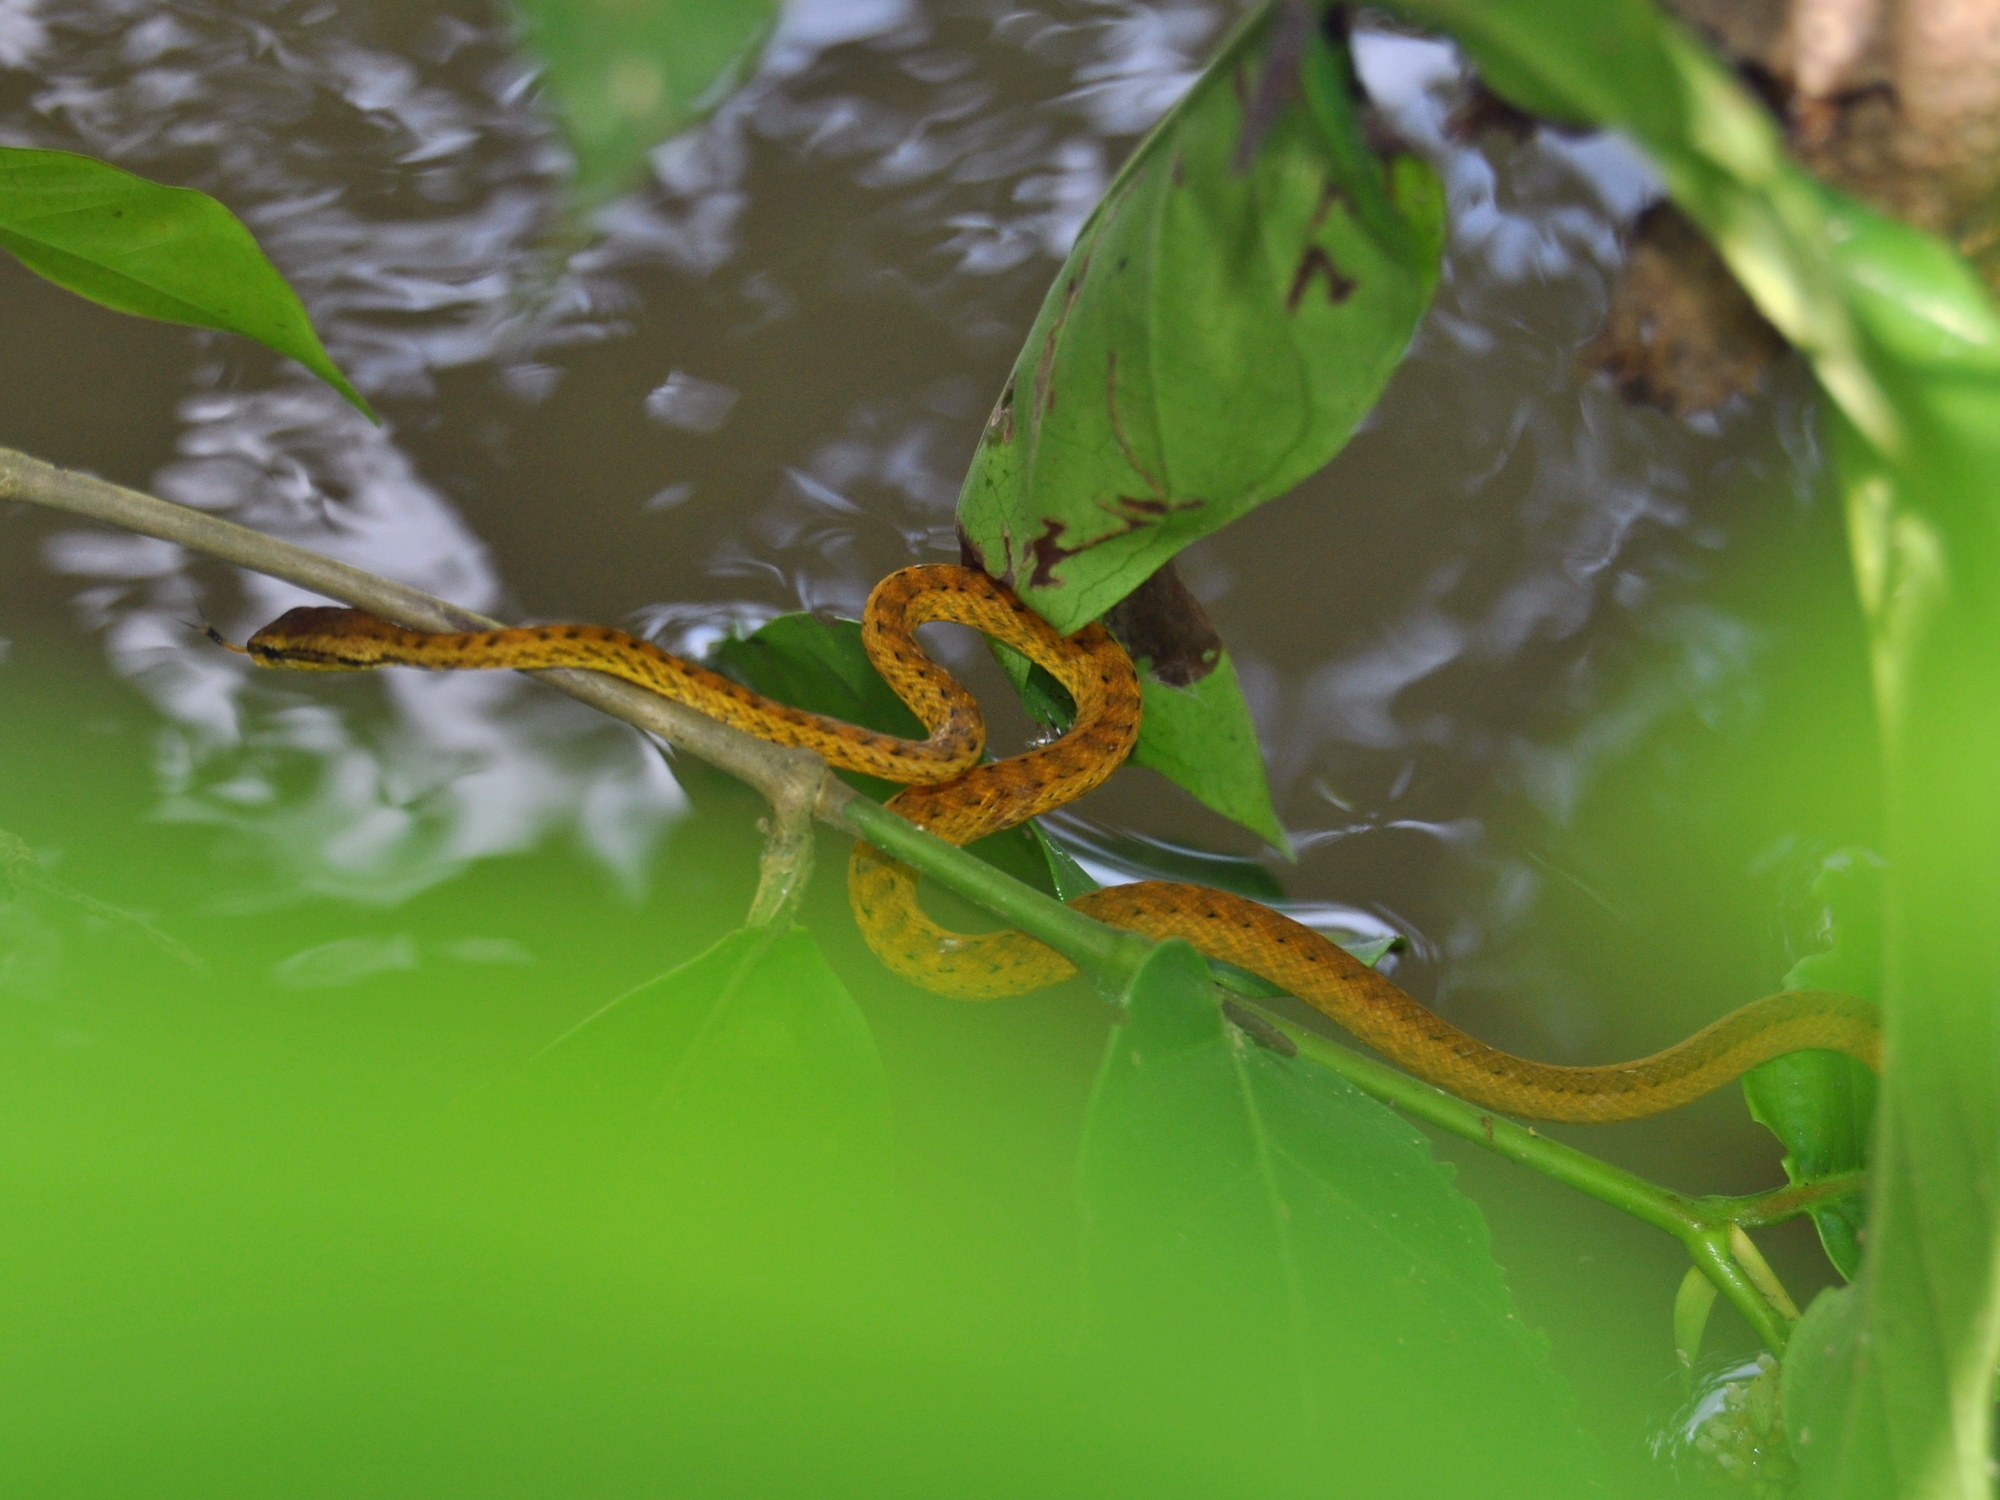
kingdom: Animalia
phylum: Chordata
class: Squamata
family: Pseudaspididae
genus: Psammodynastes
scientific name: Psammodynastes pictus
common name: Painted mock viper
